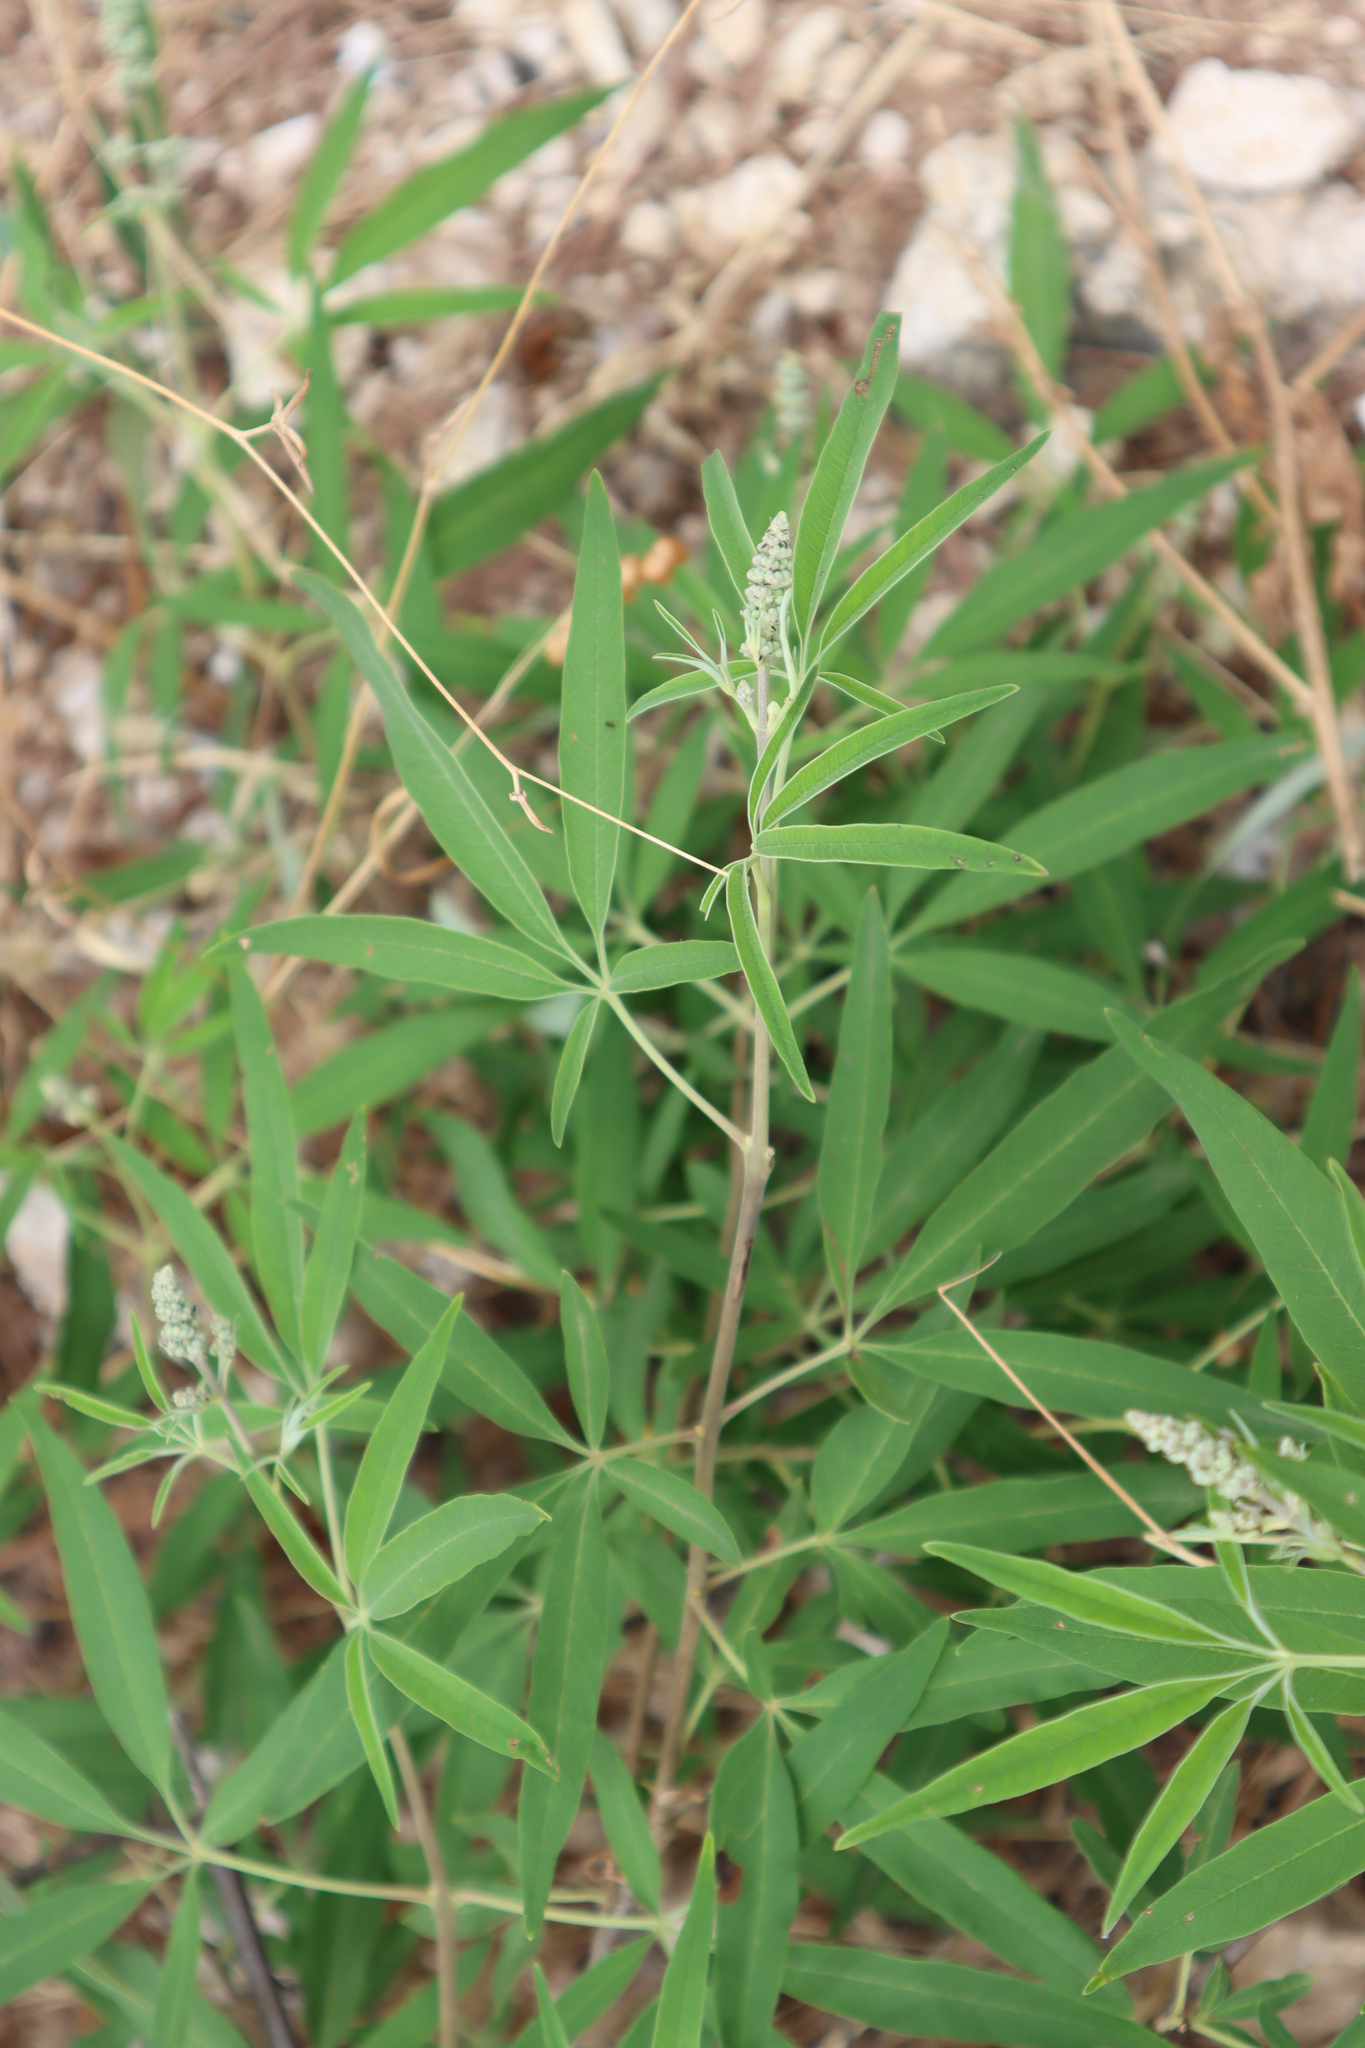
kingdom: Plantae
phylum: Tracheophyta
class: Magnoliopsida
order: Lamiales
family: Lamiaceae
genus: Vitex
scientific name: Vitex agnus-castus
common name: Chasteberry
